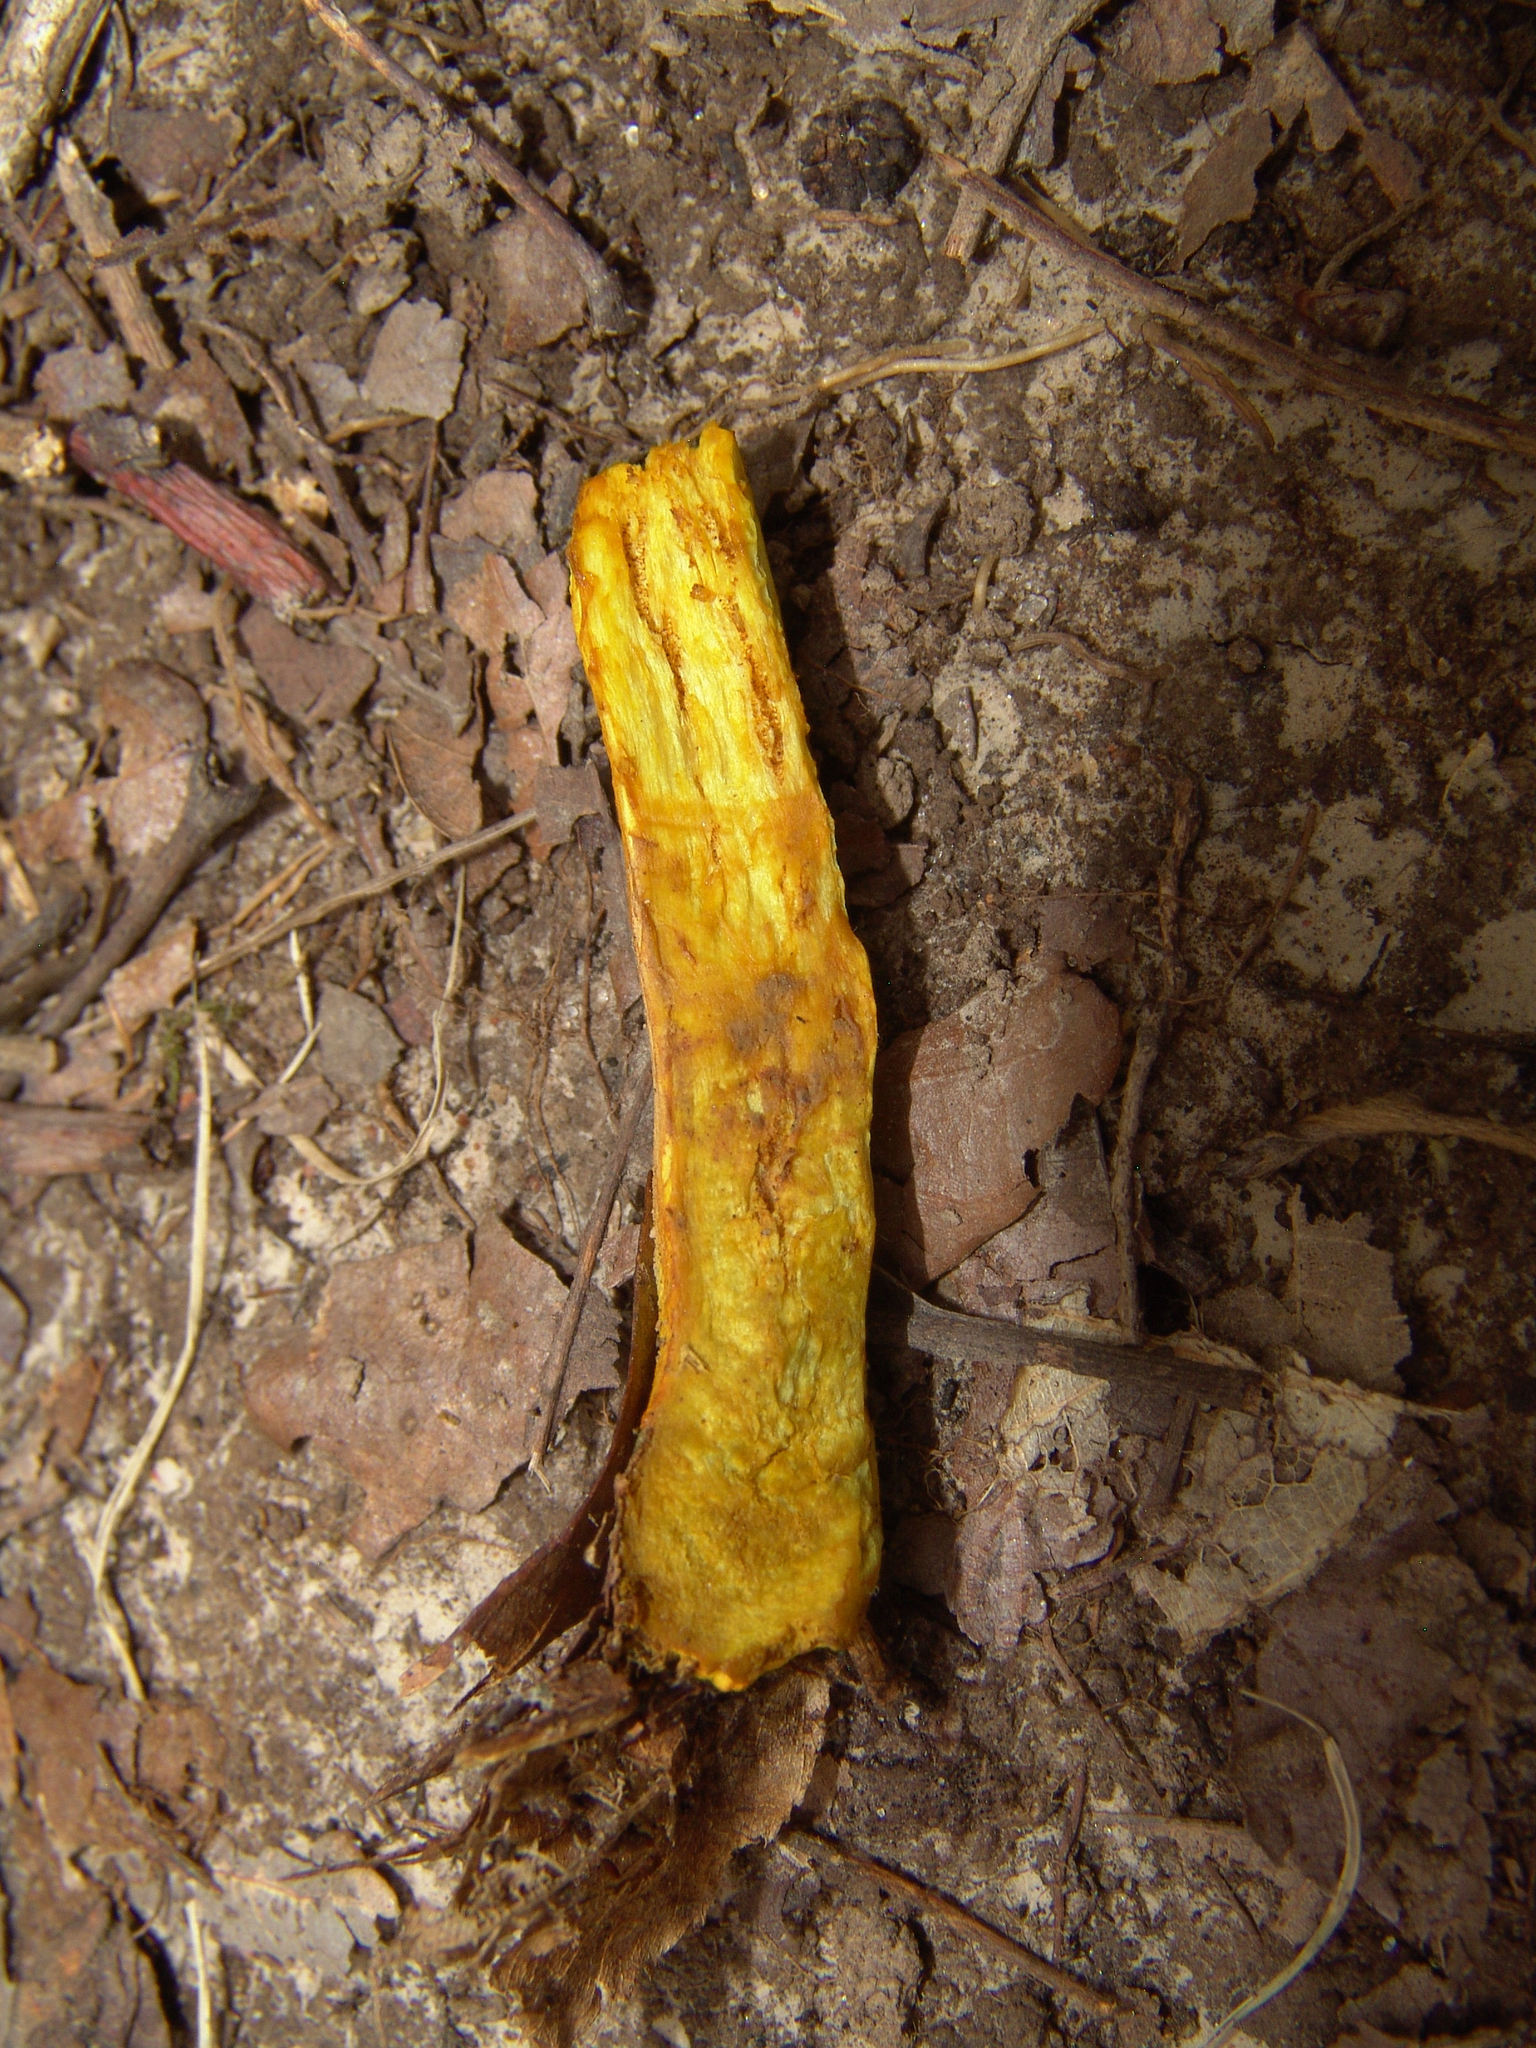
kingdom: Fungi
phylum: Basidiomycota
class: Agaricomycetes
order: Boletales
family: Boletaceae
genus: Retiboletus
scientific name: Retiboletus ornatipes
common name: Ornate-stalked bolete
